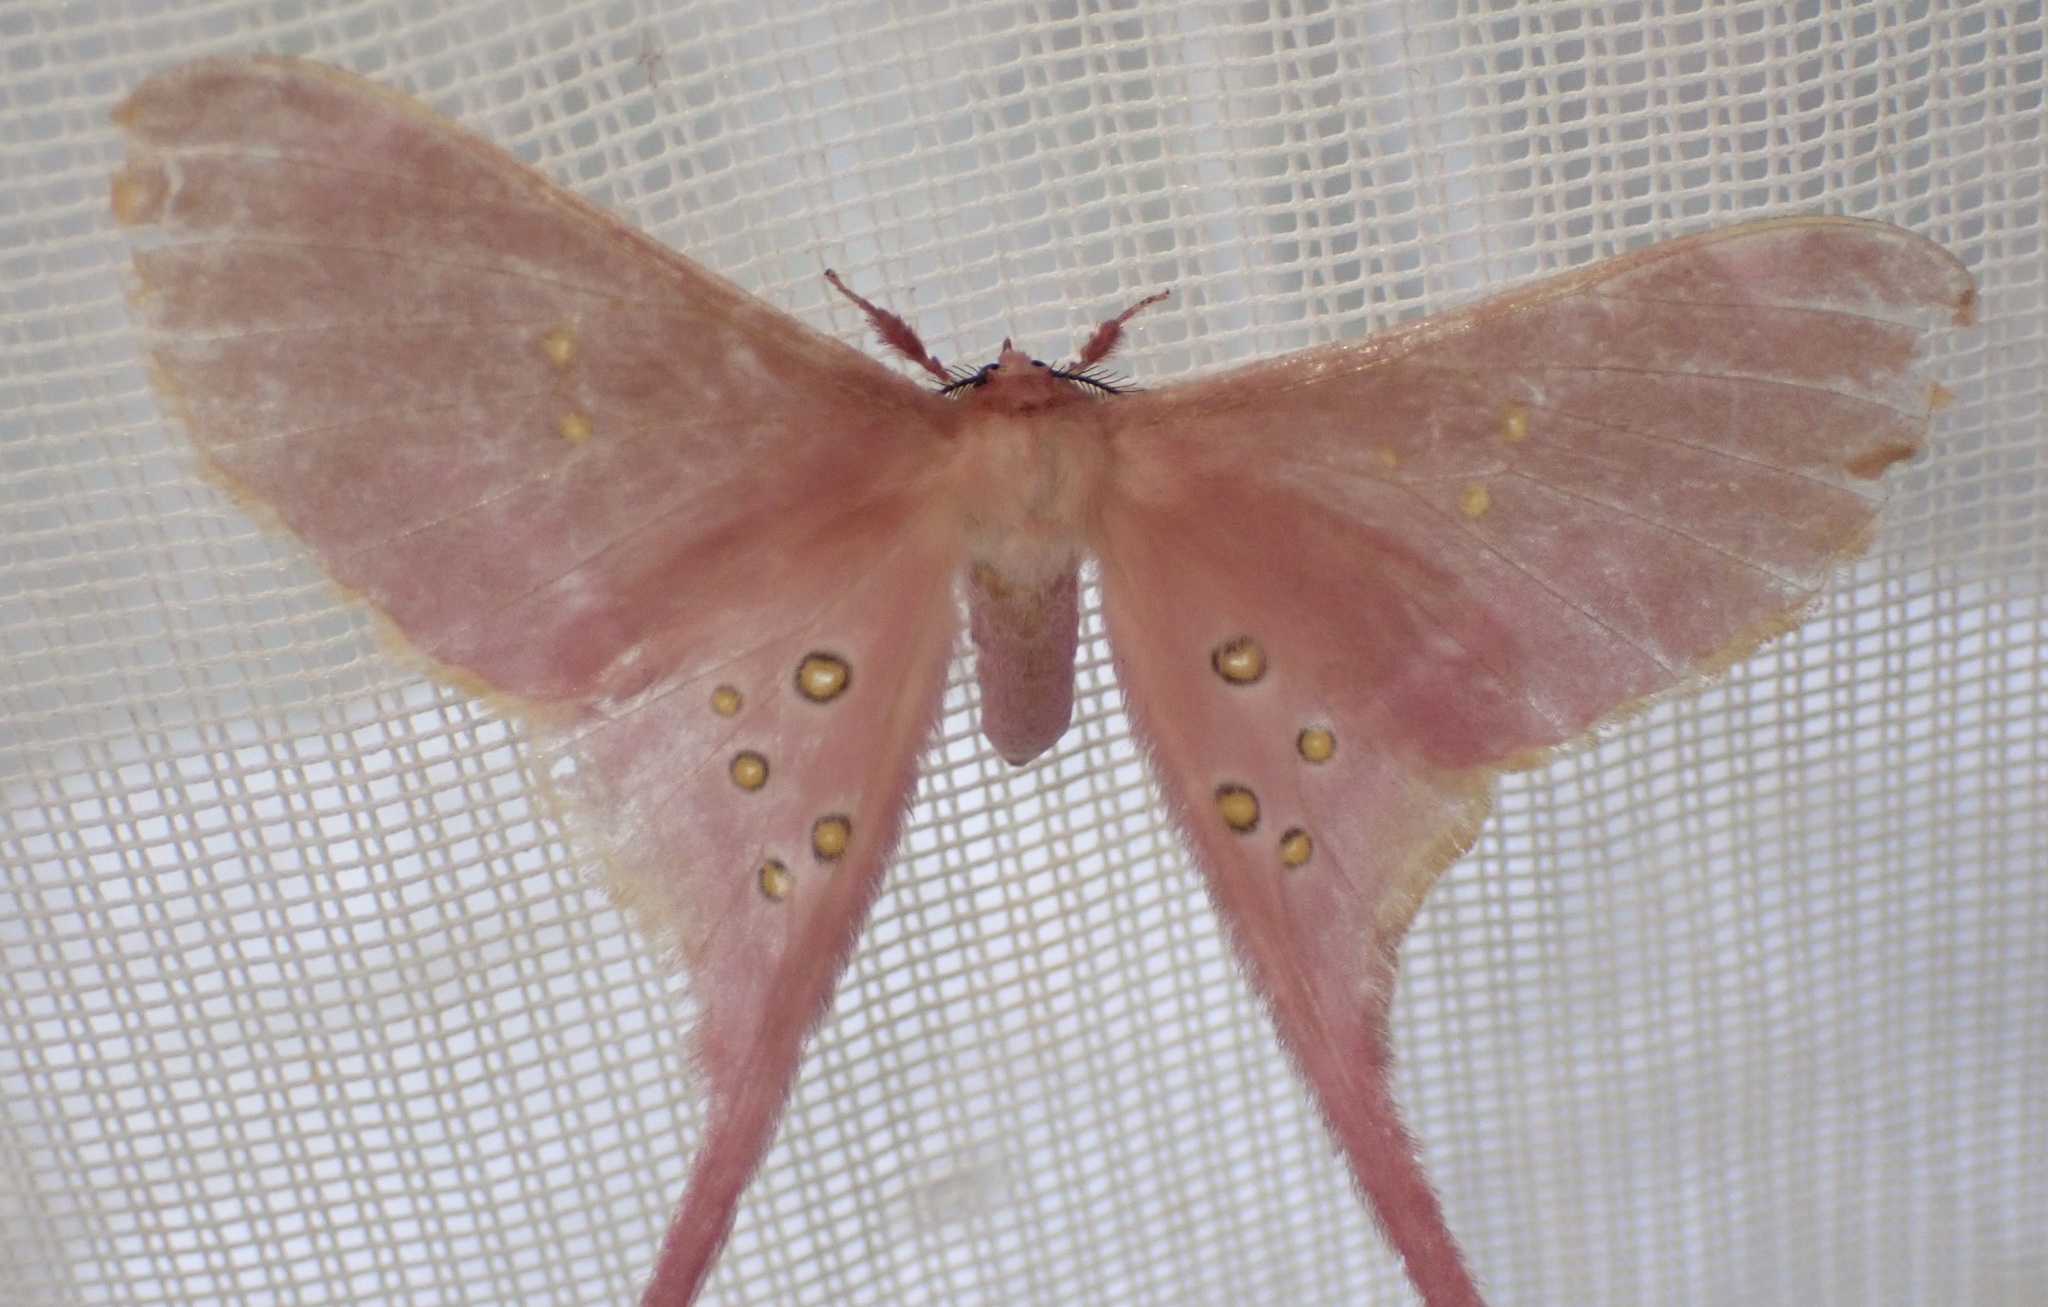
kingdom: Animalia
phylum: Arthropoda
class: Insecta
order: Lepidoptera
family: Saturniidae
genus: Eudaemonia
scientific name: Eudaemonia argus
